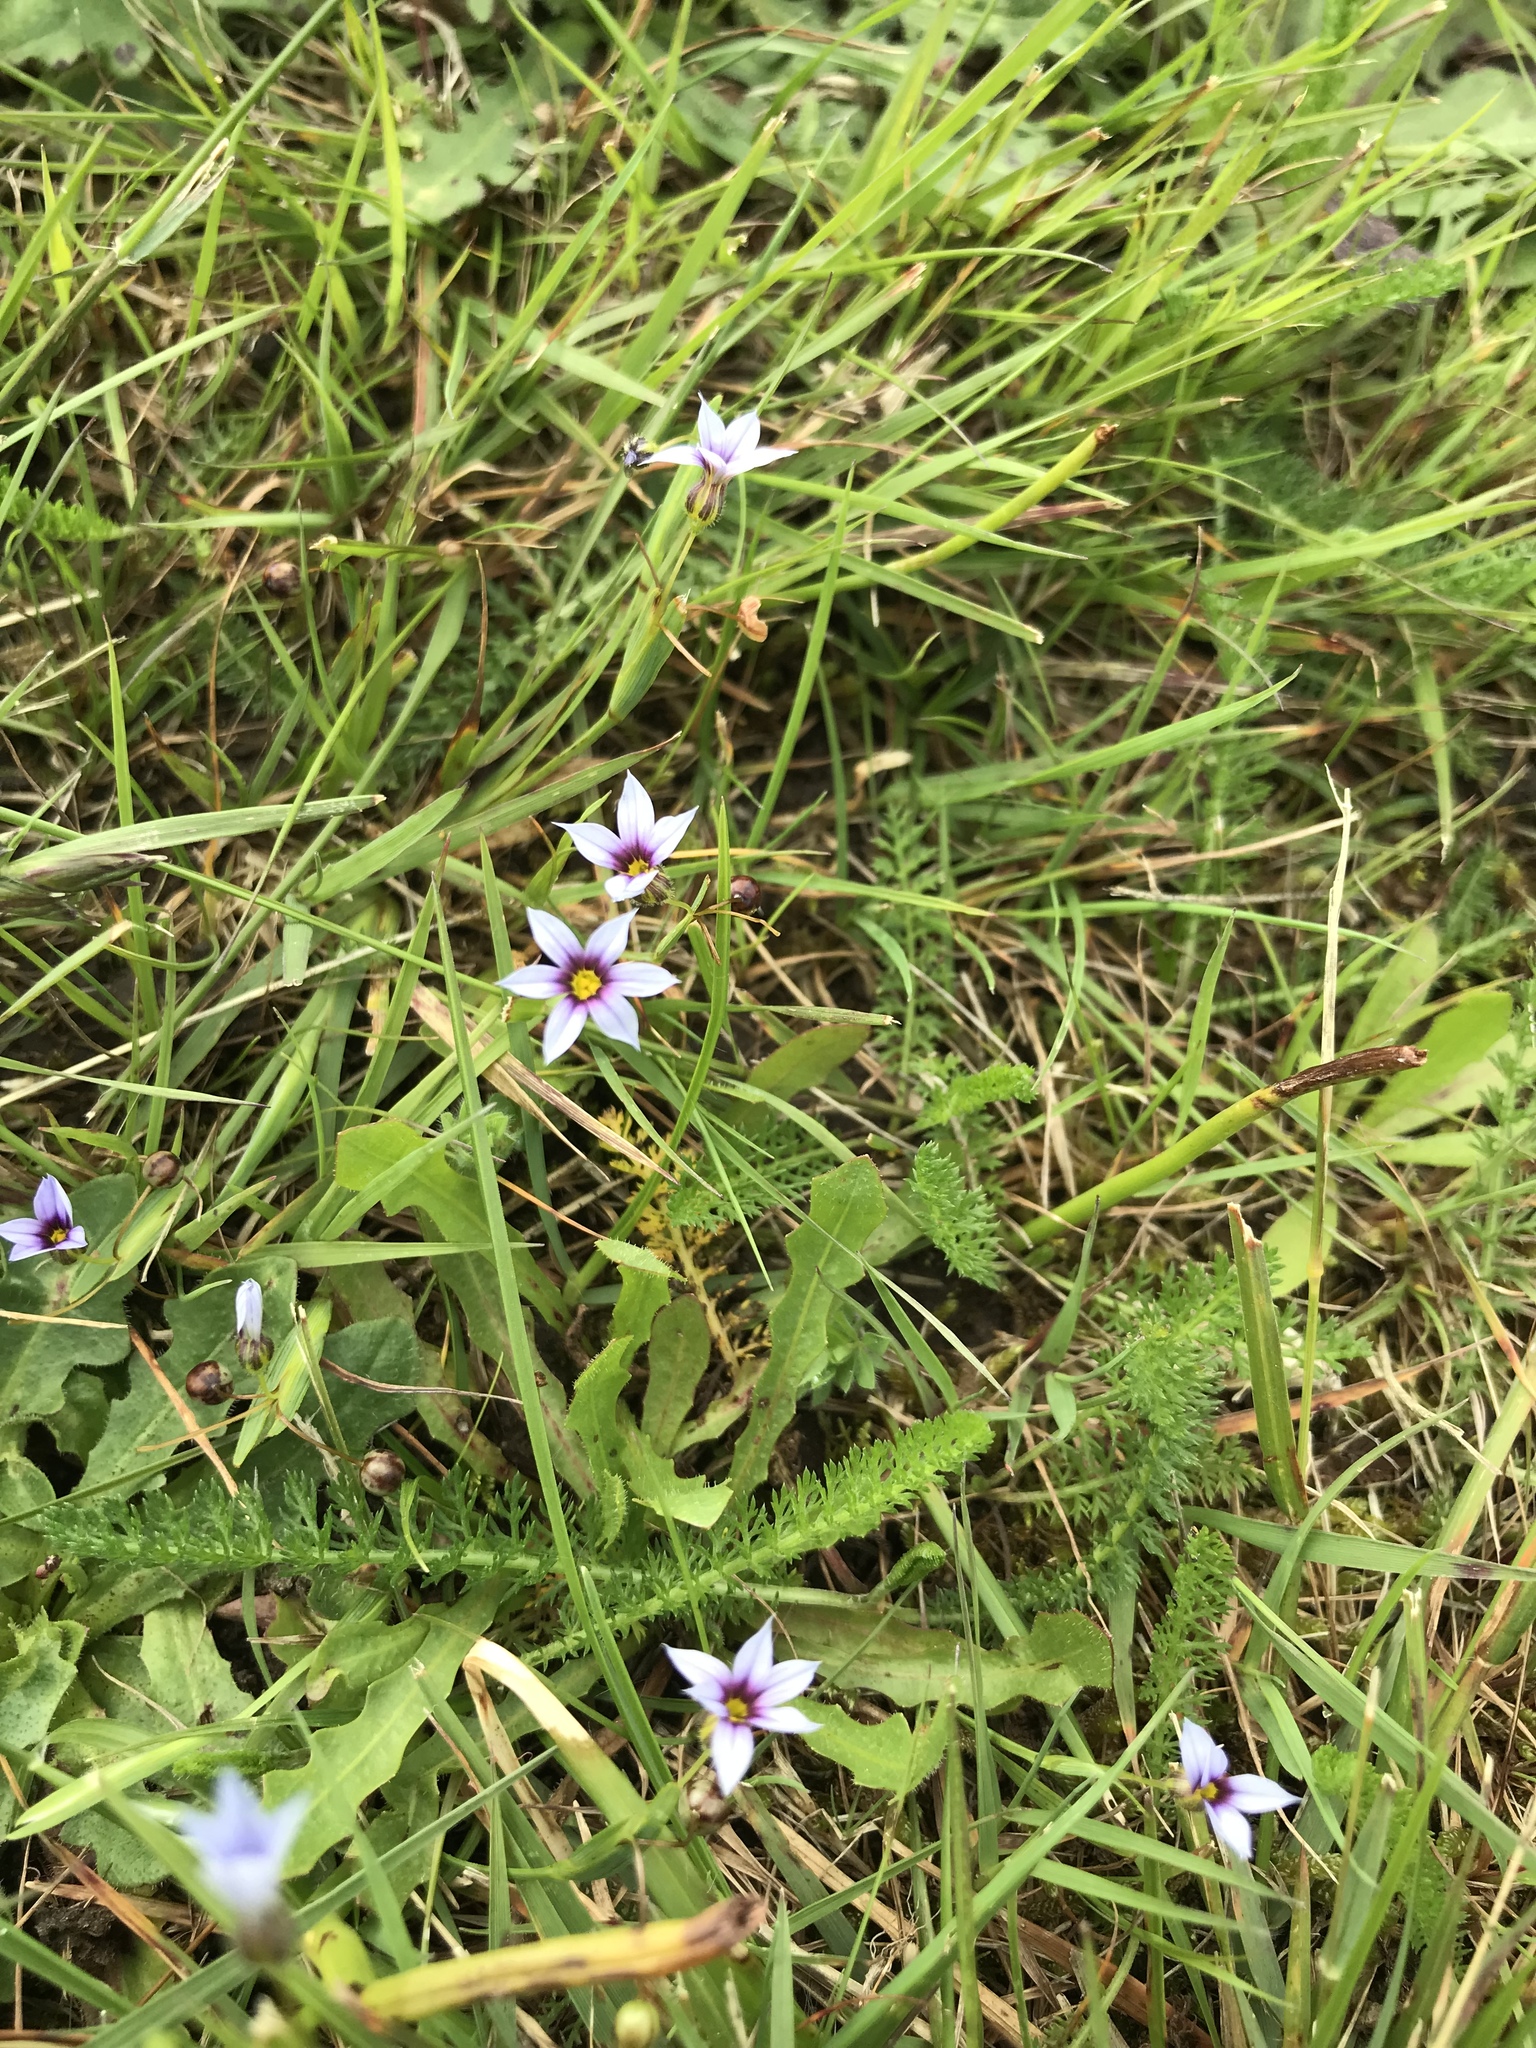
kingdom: Plantae
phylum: Tracheophyta
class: Liliopsida
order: Asparagales
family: Iridaceae
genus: Sisyrinchium
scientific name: Sisyrinchium micranthum
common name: Bermuda pigroot
